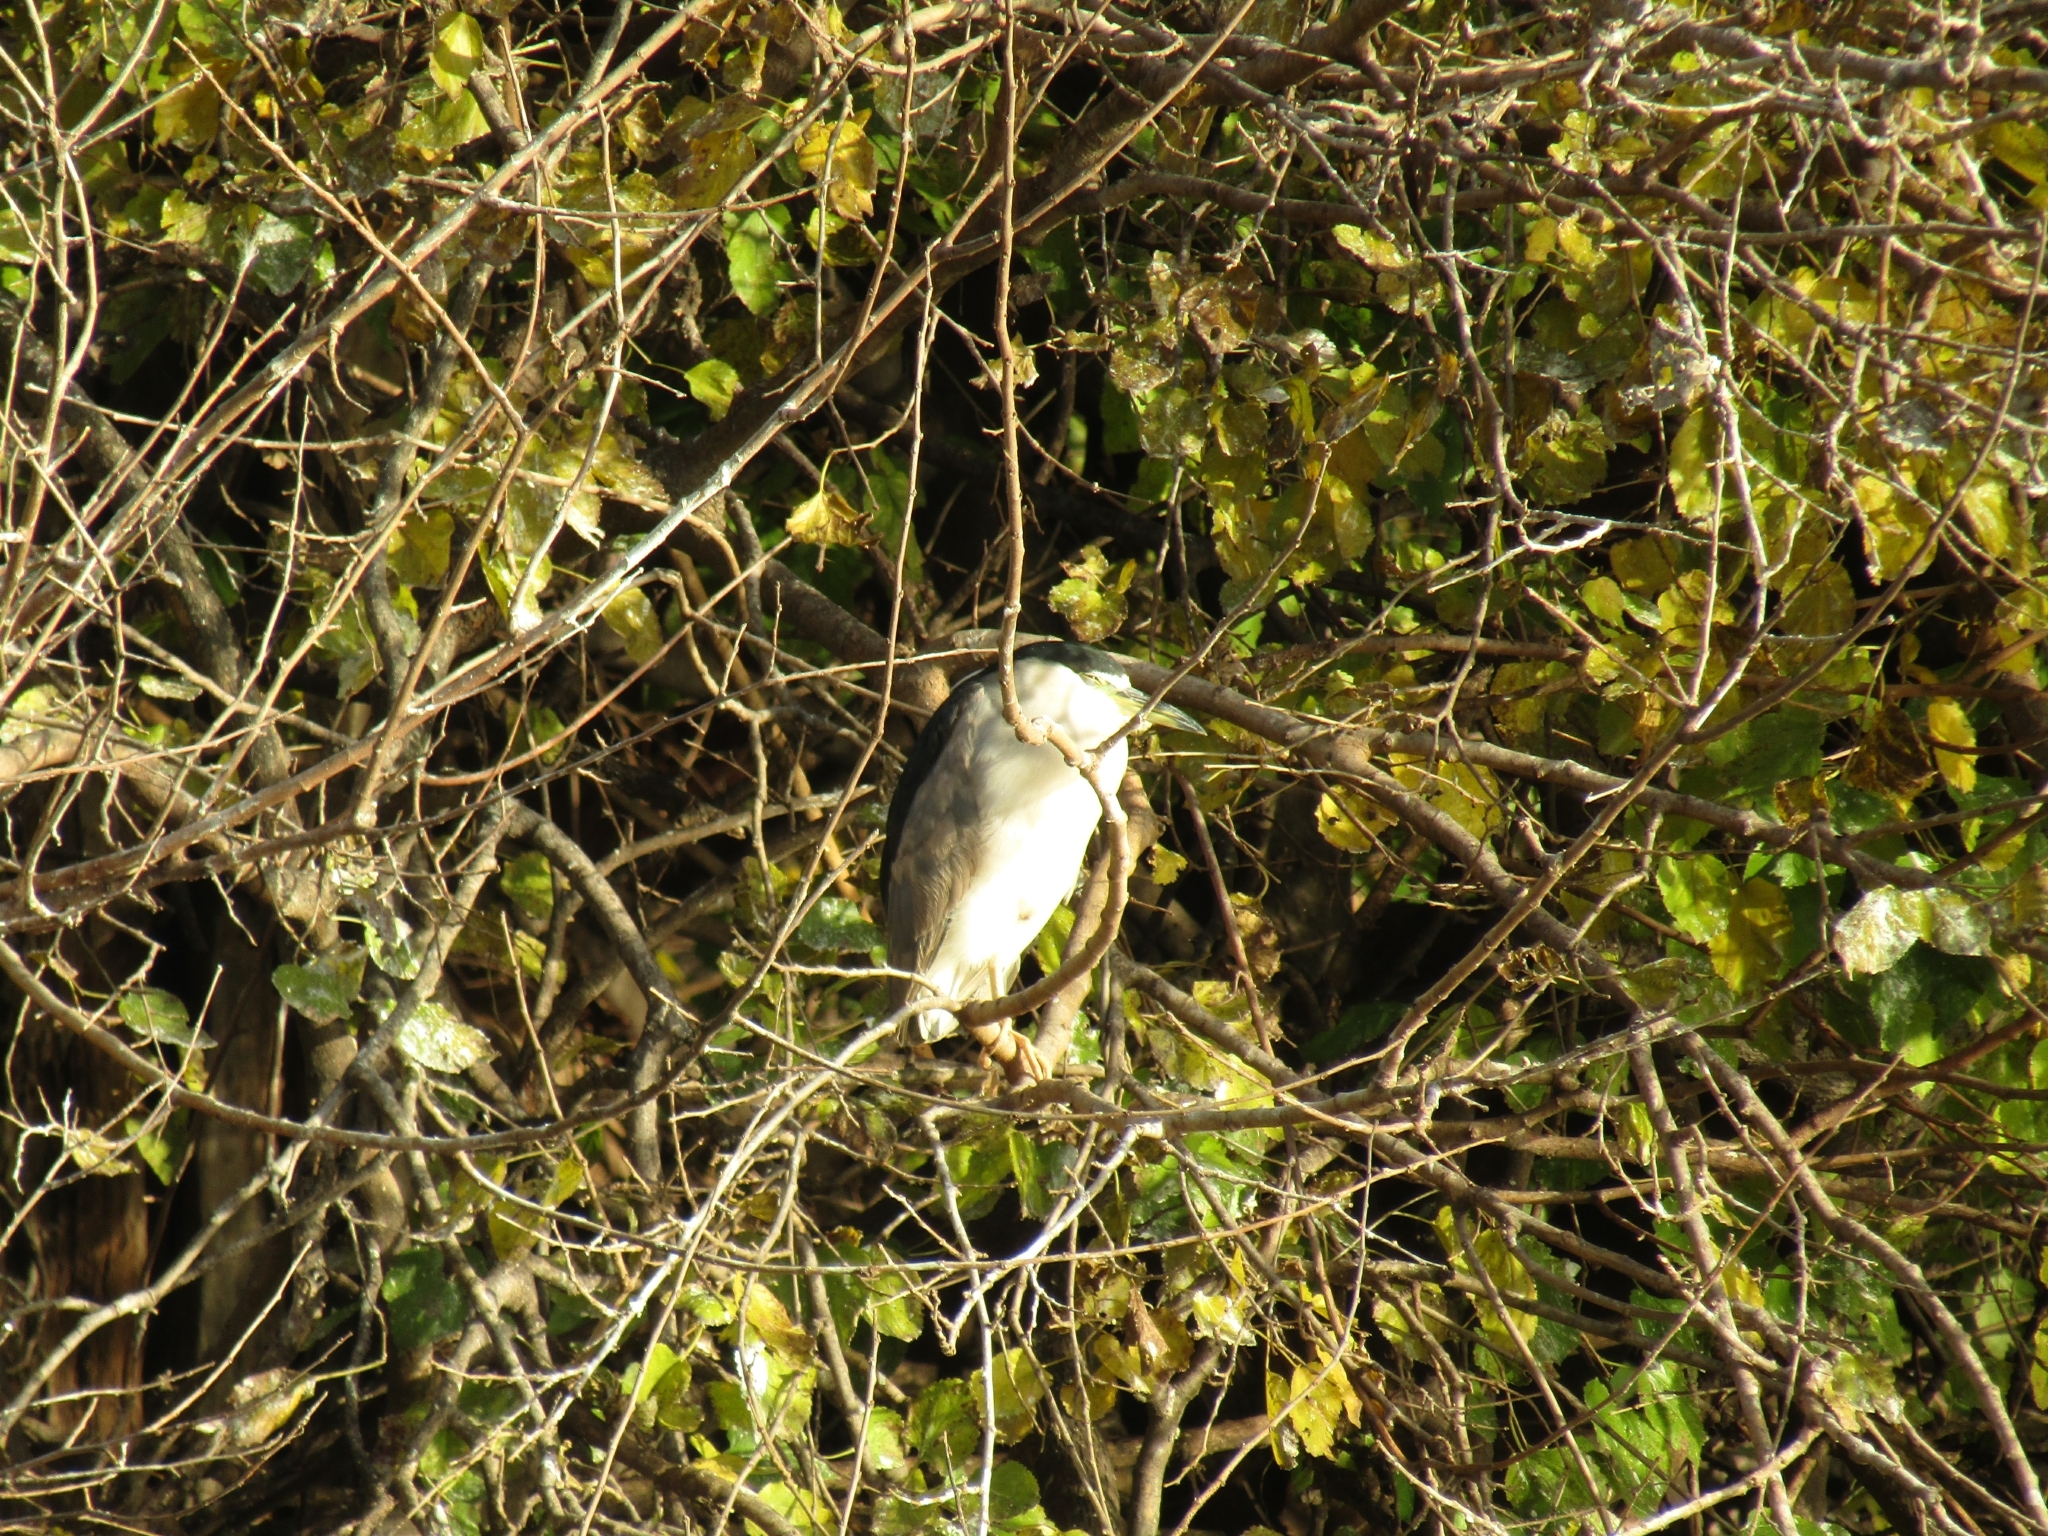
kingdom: Animalia
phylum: Chordata
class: Aves
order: Pelecaniformes
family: Ardeidae
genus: Nycticorax
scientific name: Nycticorax nycticorax
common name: Black-crowned night heron
